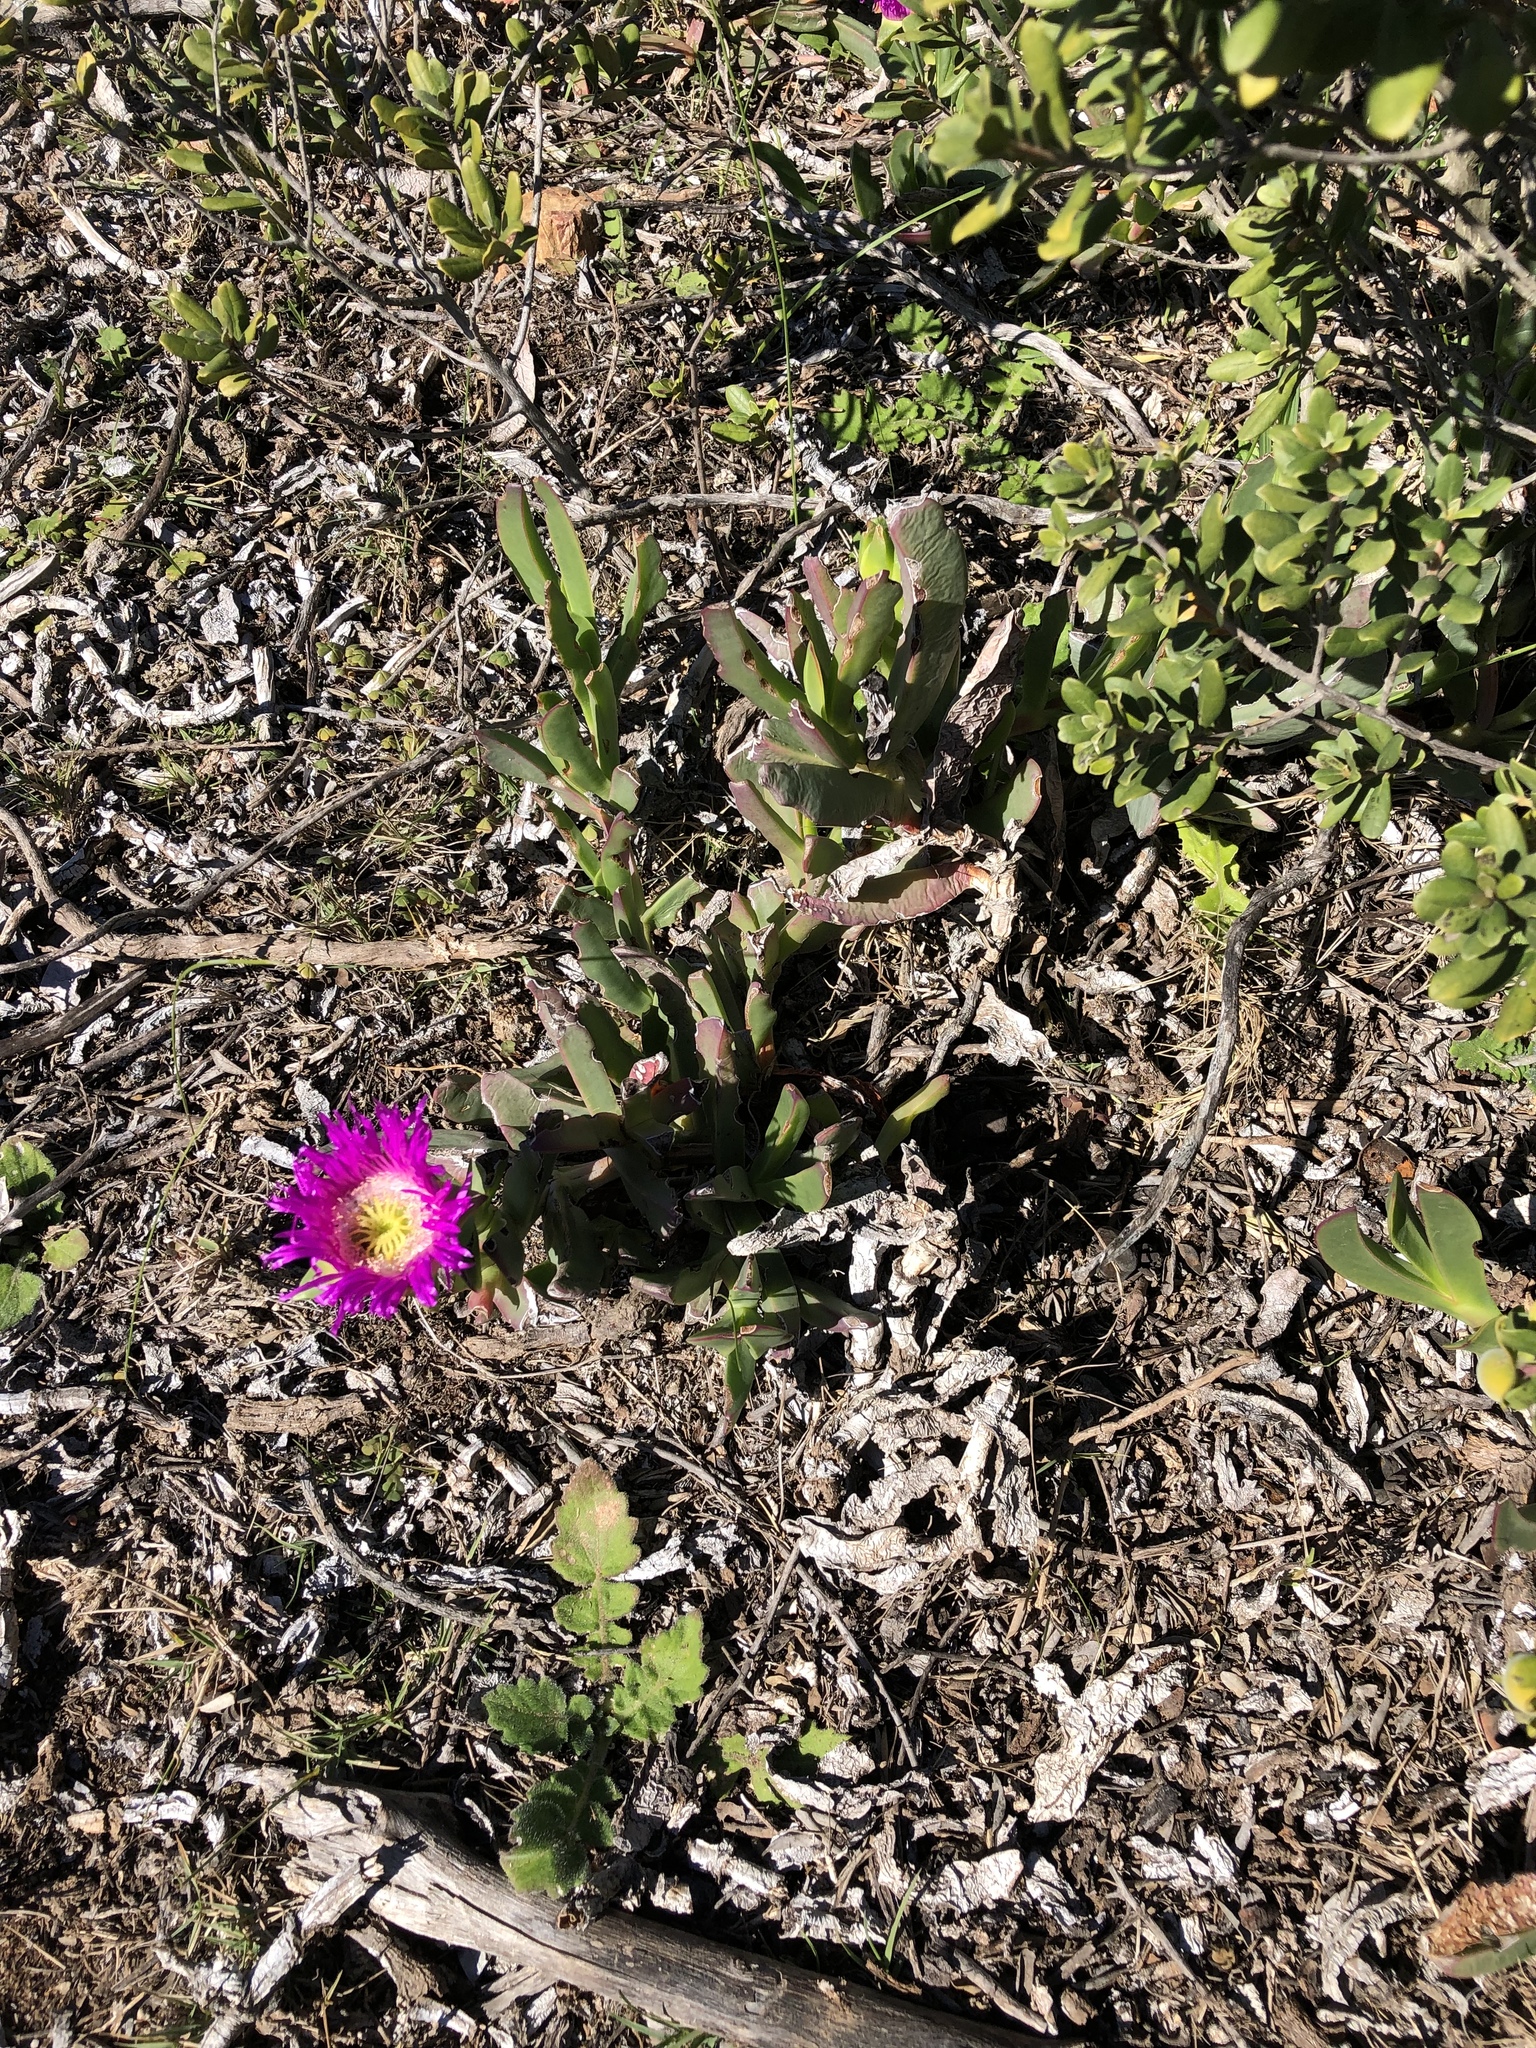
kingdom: Plantae
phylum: Tracheophyta
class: Magnoliopsida
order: Caryophyllales
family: Aizoaceae
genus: Carpobrotus
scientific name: Carpobrotus acinaciformis
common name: Sally-my-handsome
